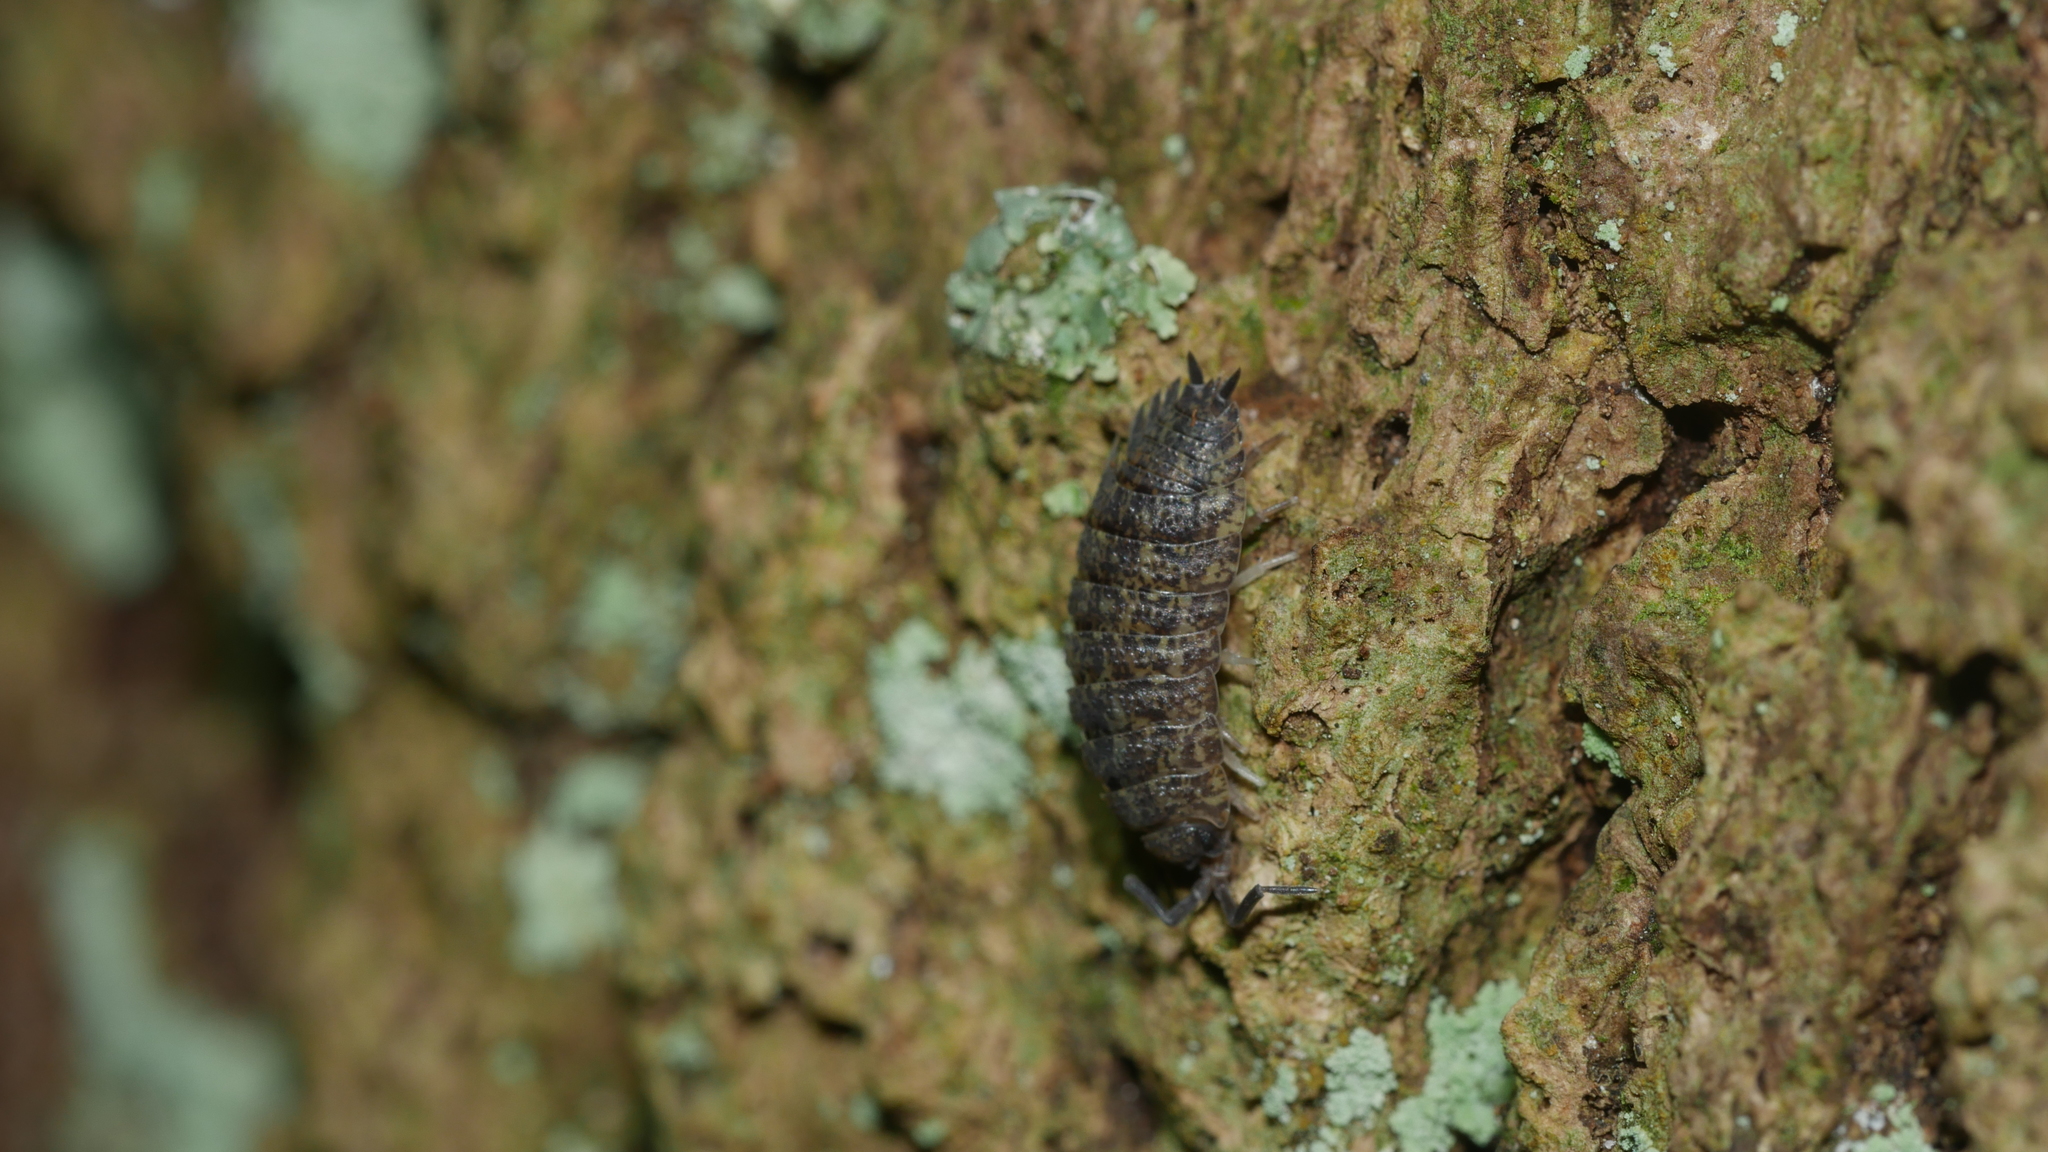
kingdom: Animalia
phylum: Arthropoda
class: Malacostraca
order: Isopoda
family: Porcellionidae
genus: Porcellio
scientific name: Porcellio scaber
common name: Common rough woodlouse
